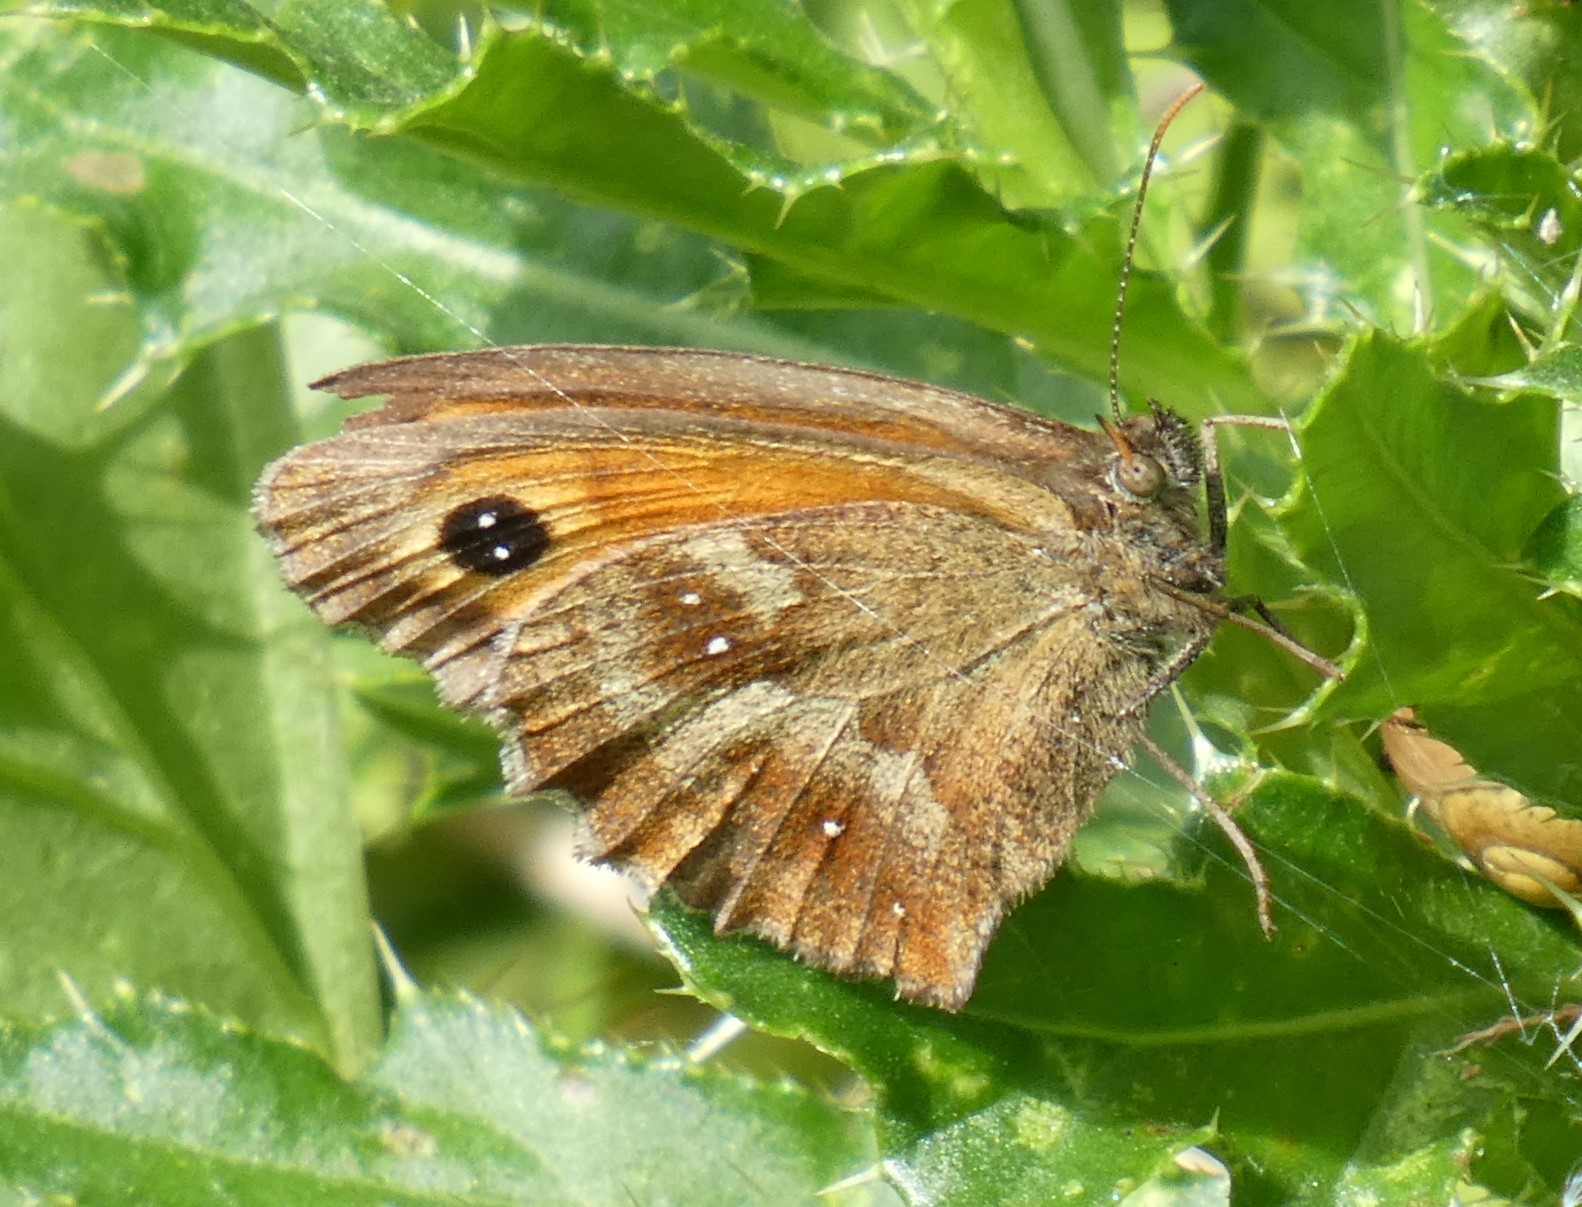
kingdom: Animalia
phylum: Arthropoda
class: Insecta
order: Lepidoptera
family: Nymphalidae
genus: Pyronia
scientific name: Pyronia tithonus
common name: Gatekeeper
